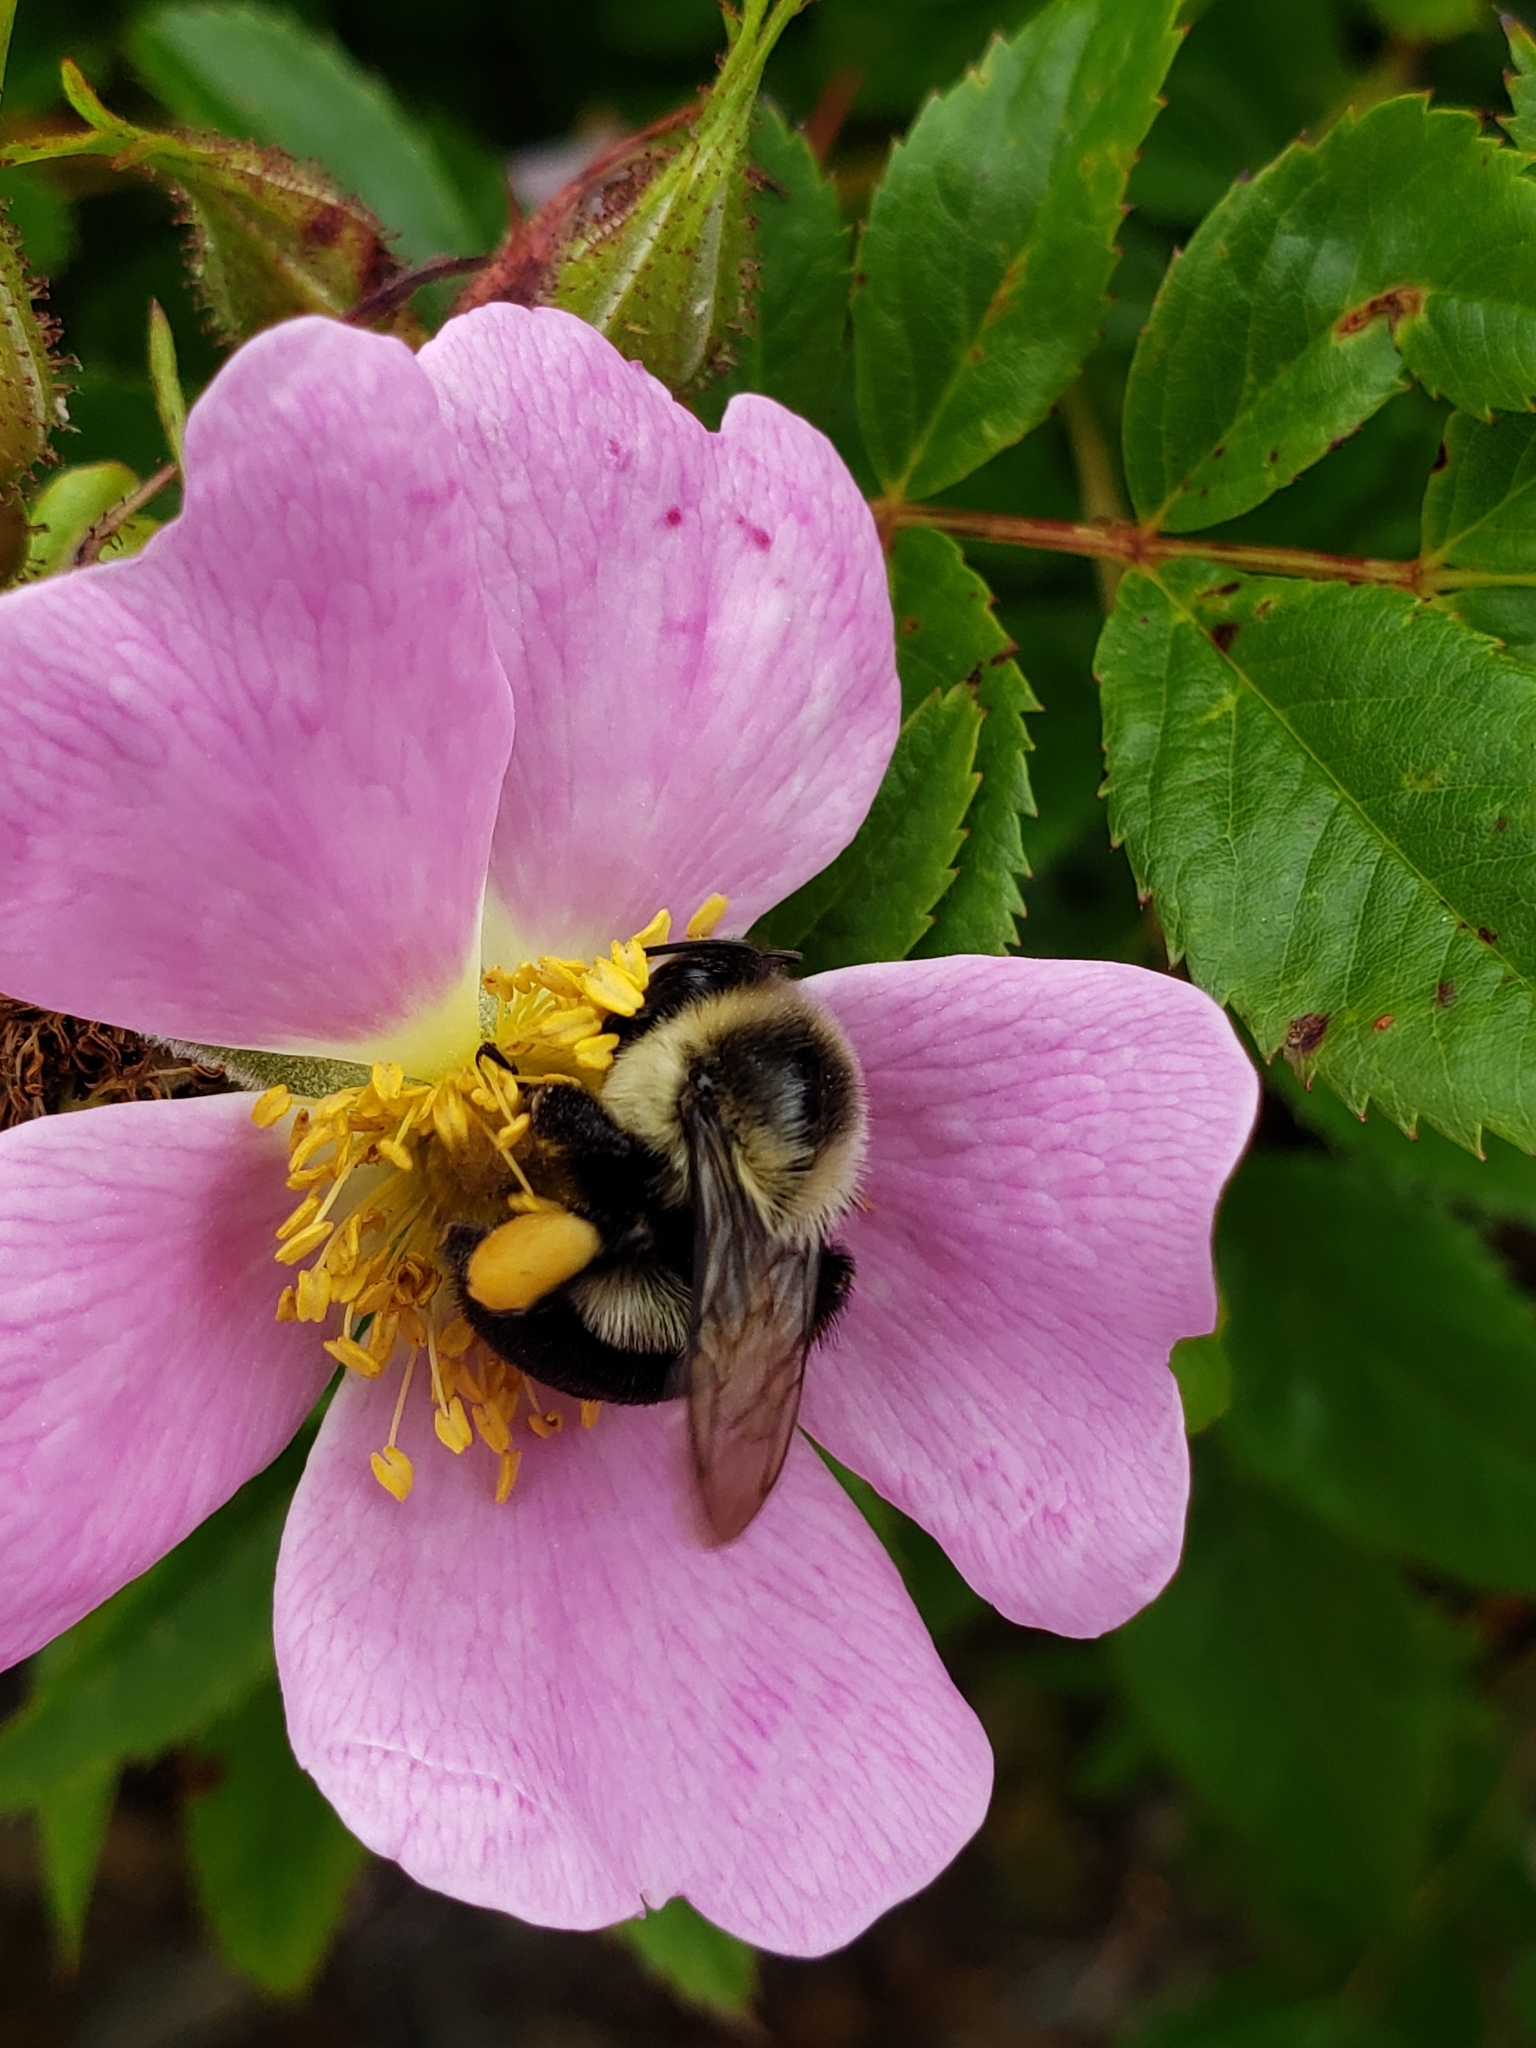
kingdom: Animalia
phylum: Arthropoda
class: Insecta
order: Hymenoptera
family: Apidae
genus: Bombus
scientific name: Bombus impatiens
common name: Common eastern bumble bee
